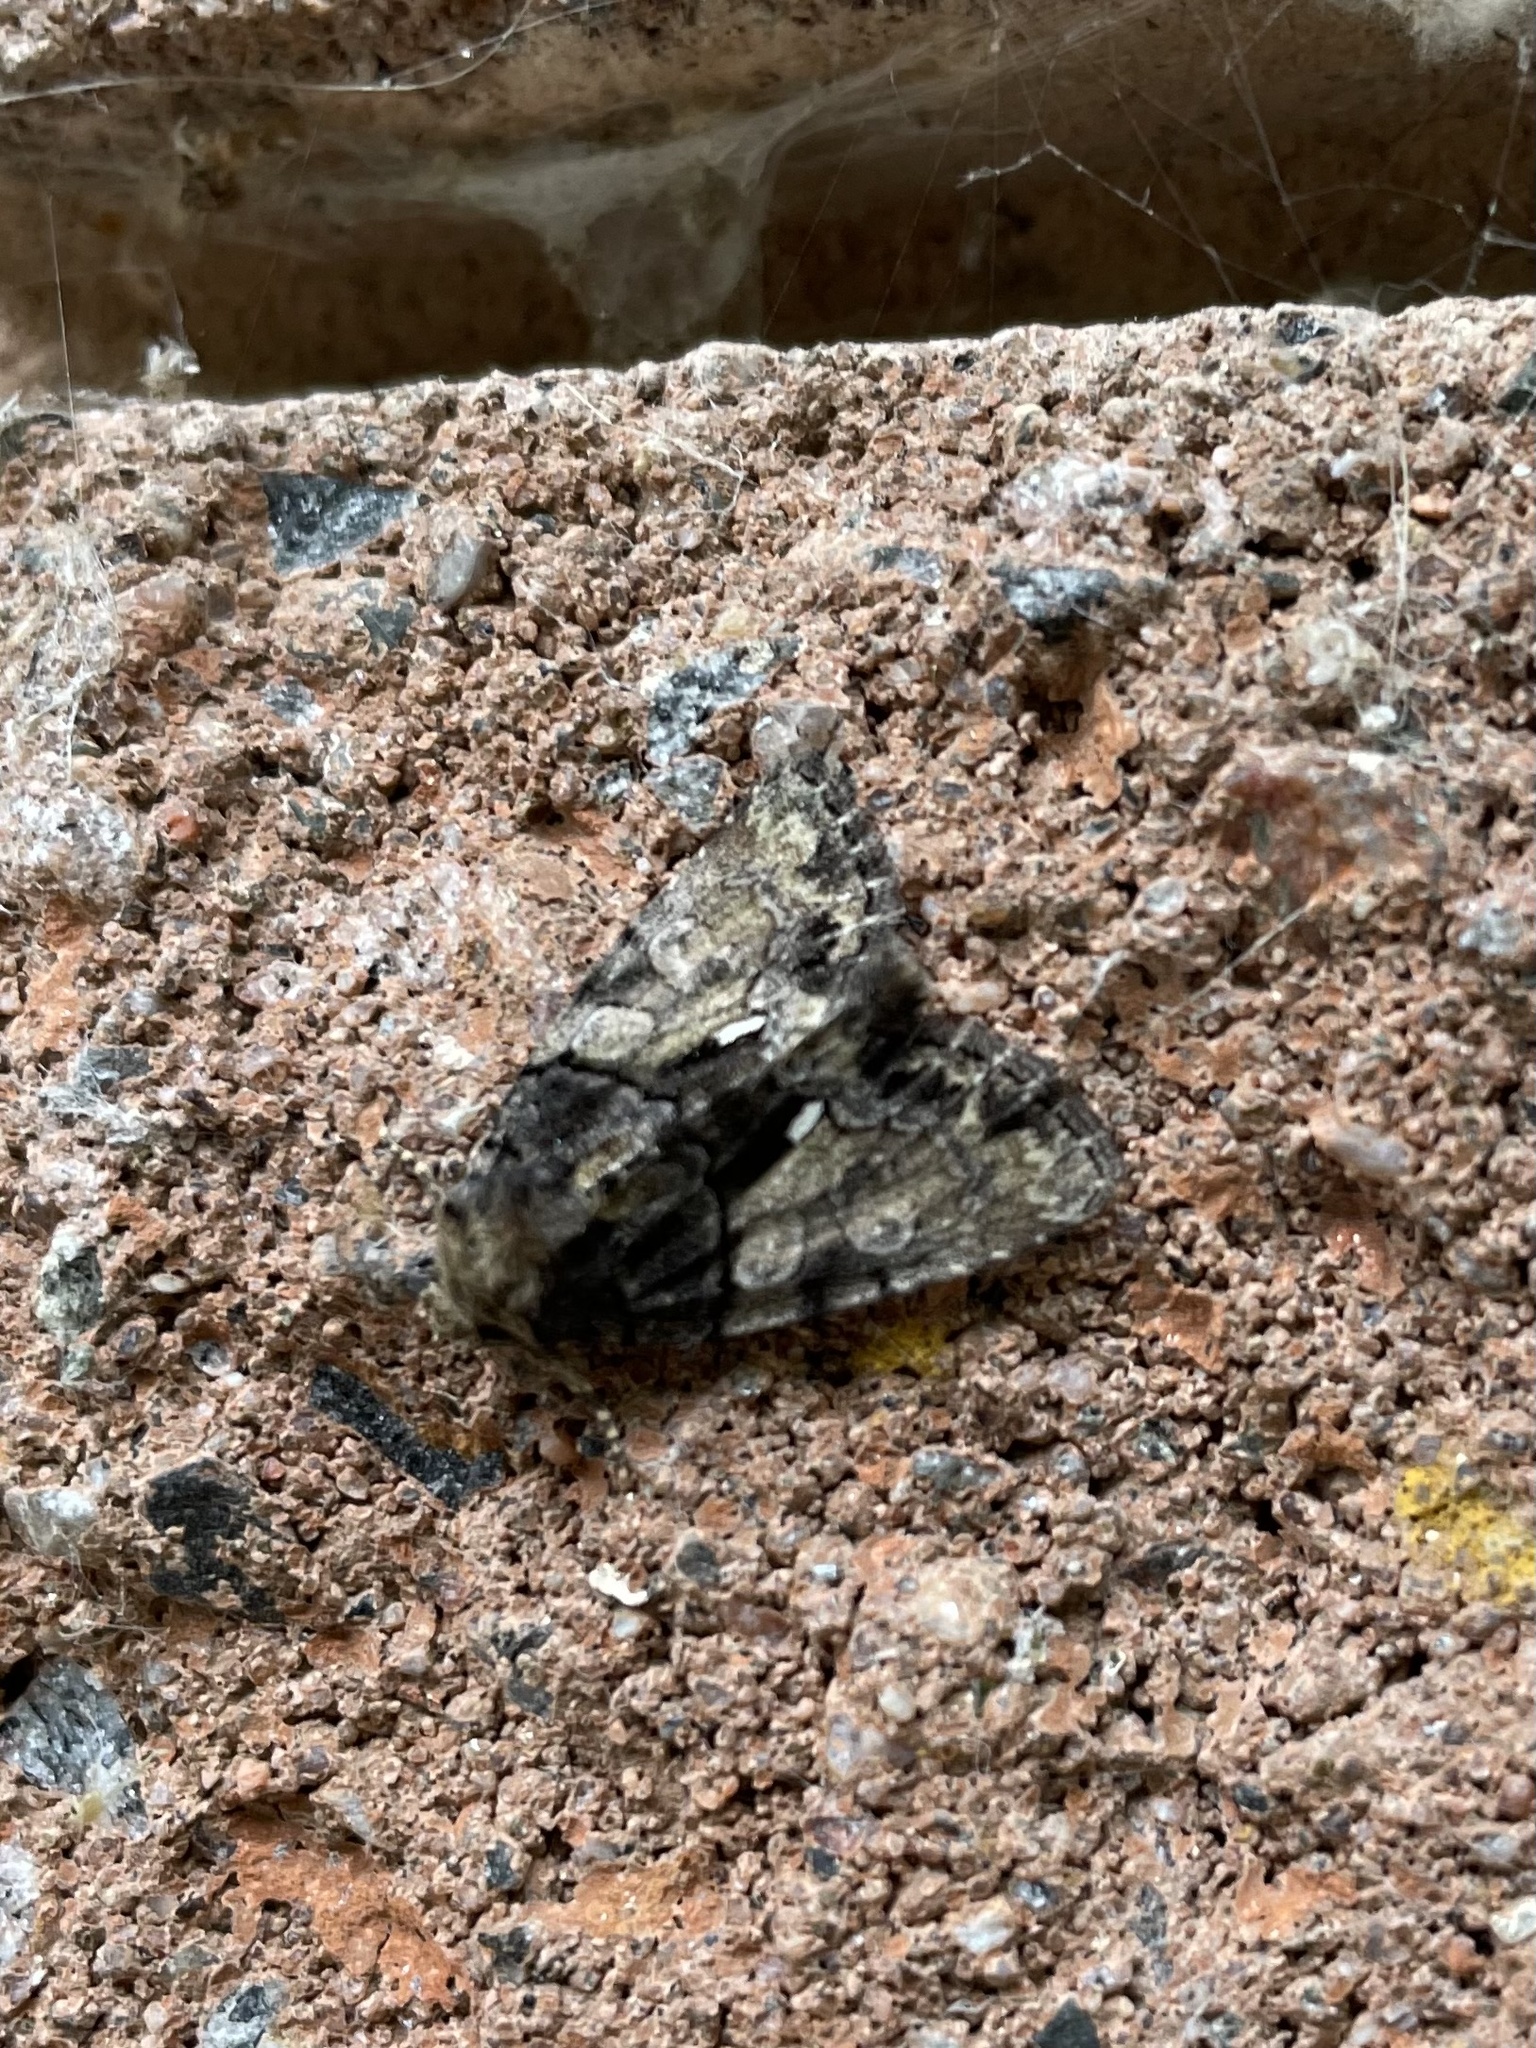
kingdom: Animalia
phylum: Arthropoda
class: Insecta
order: Lepidoptera
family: Noctuidae
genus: Chytonix
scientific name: Chytonix palliatricula
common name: Cloaked marvel
